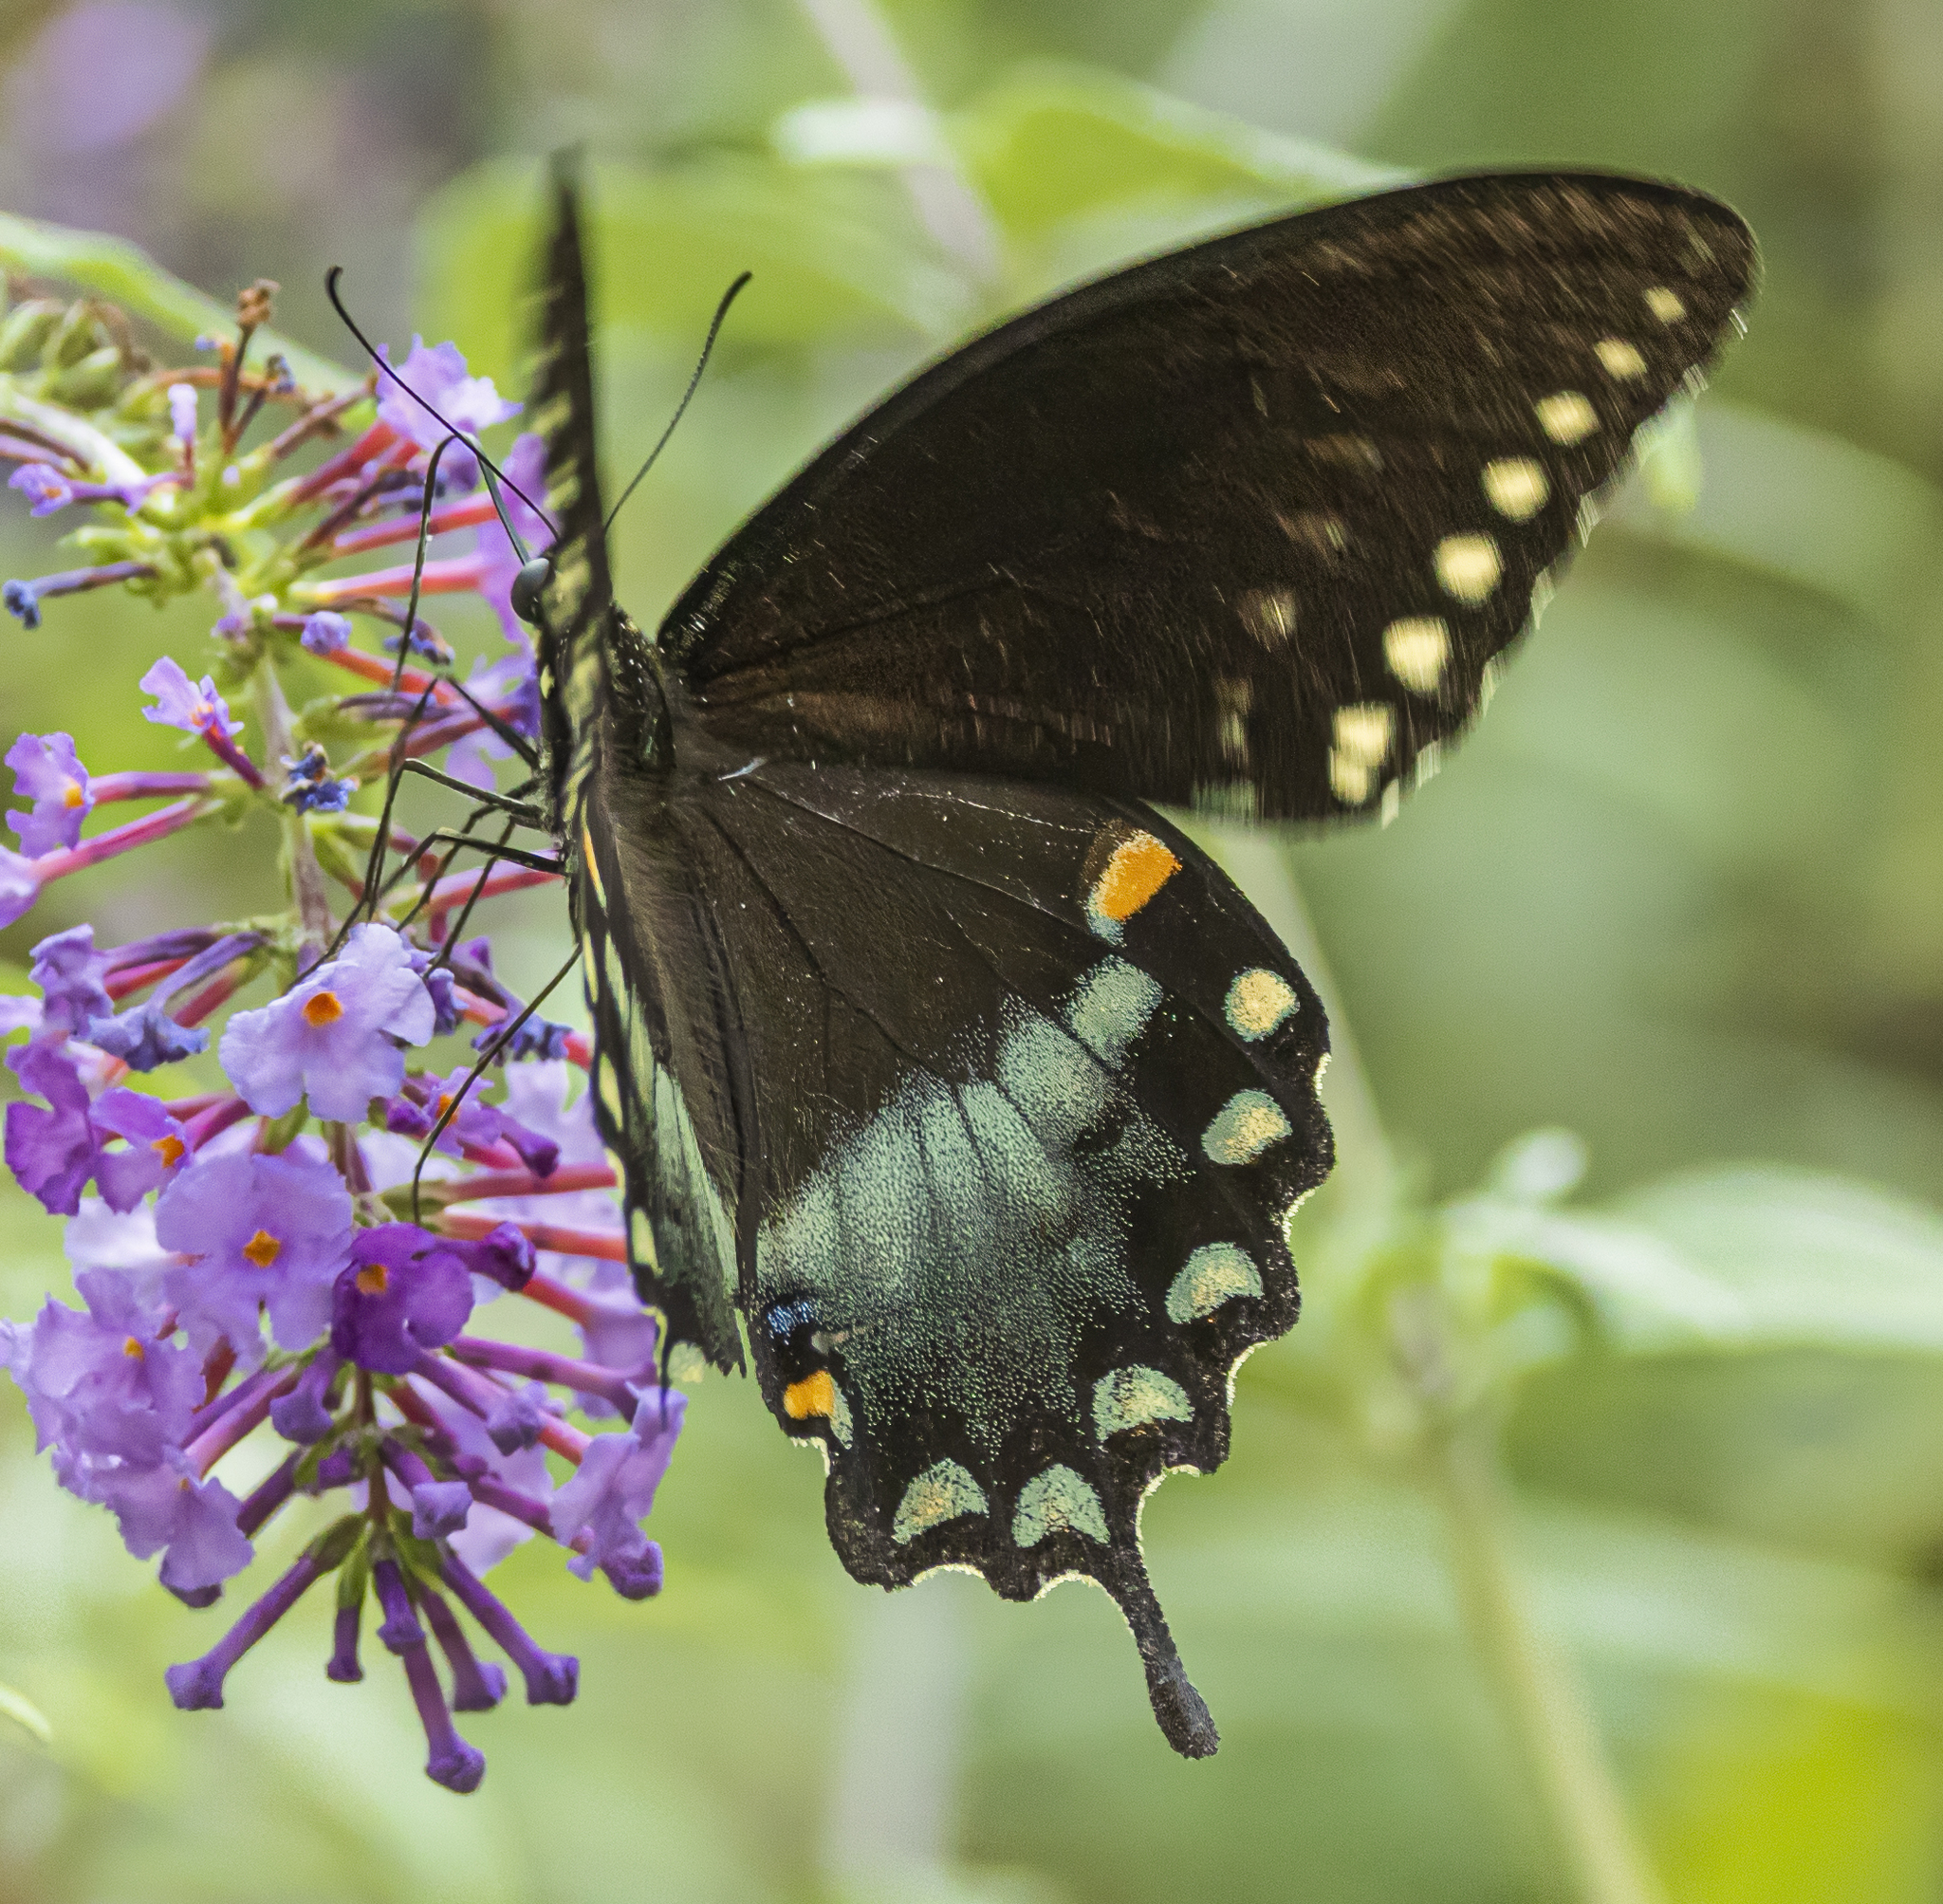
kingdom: Animalia
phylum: Arthropoda
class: Insecta
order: Lepidoptera
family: Papilionidae
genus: Papilio
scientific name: Papilio troilus
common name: Spicebush swallowtail
